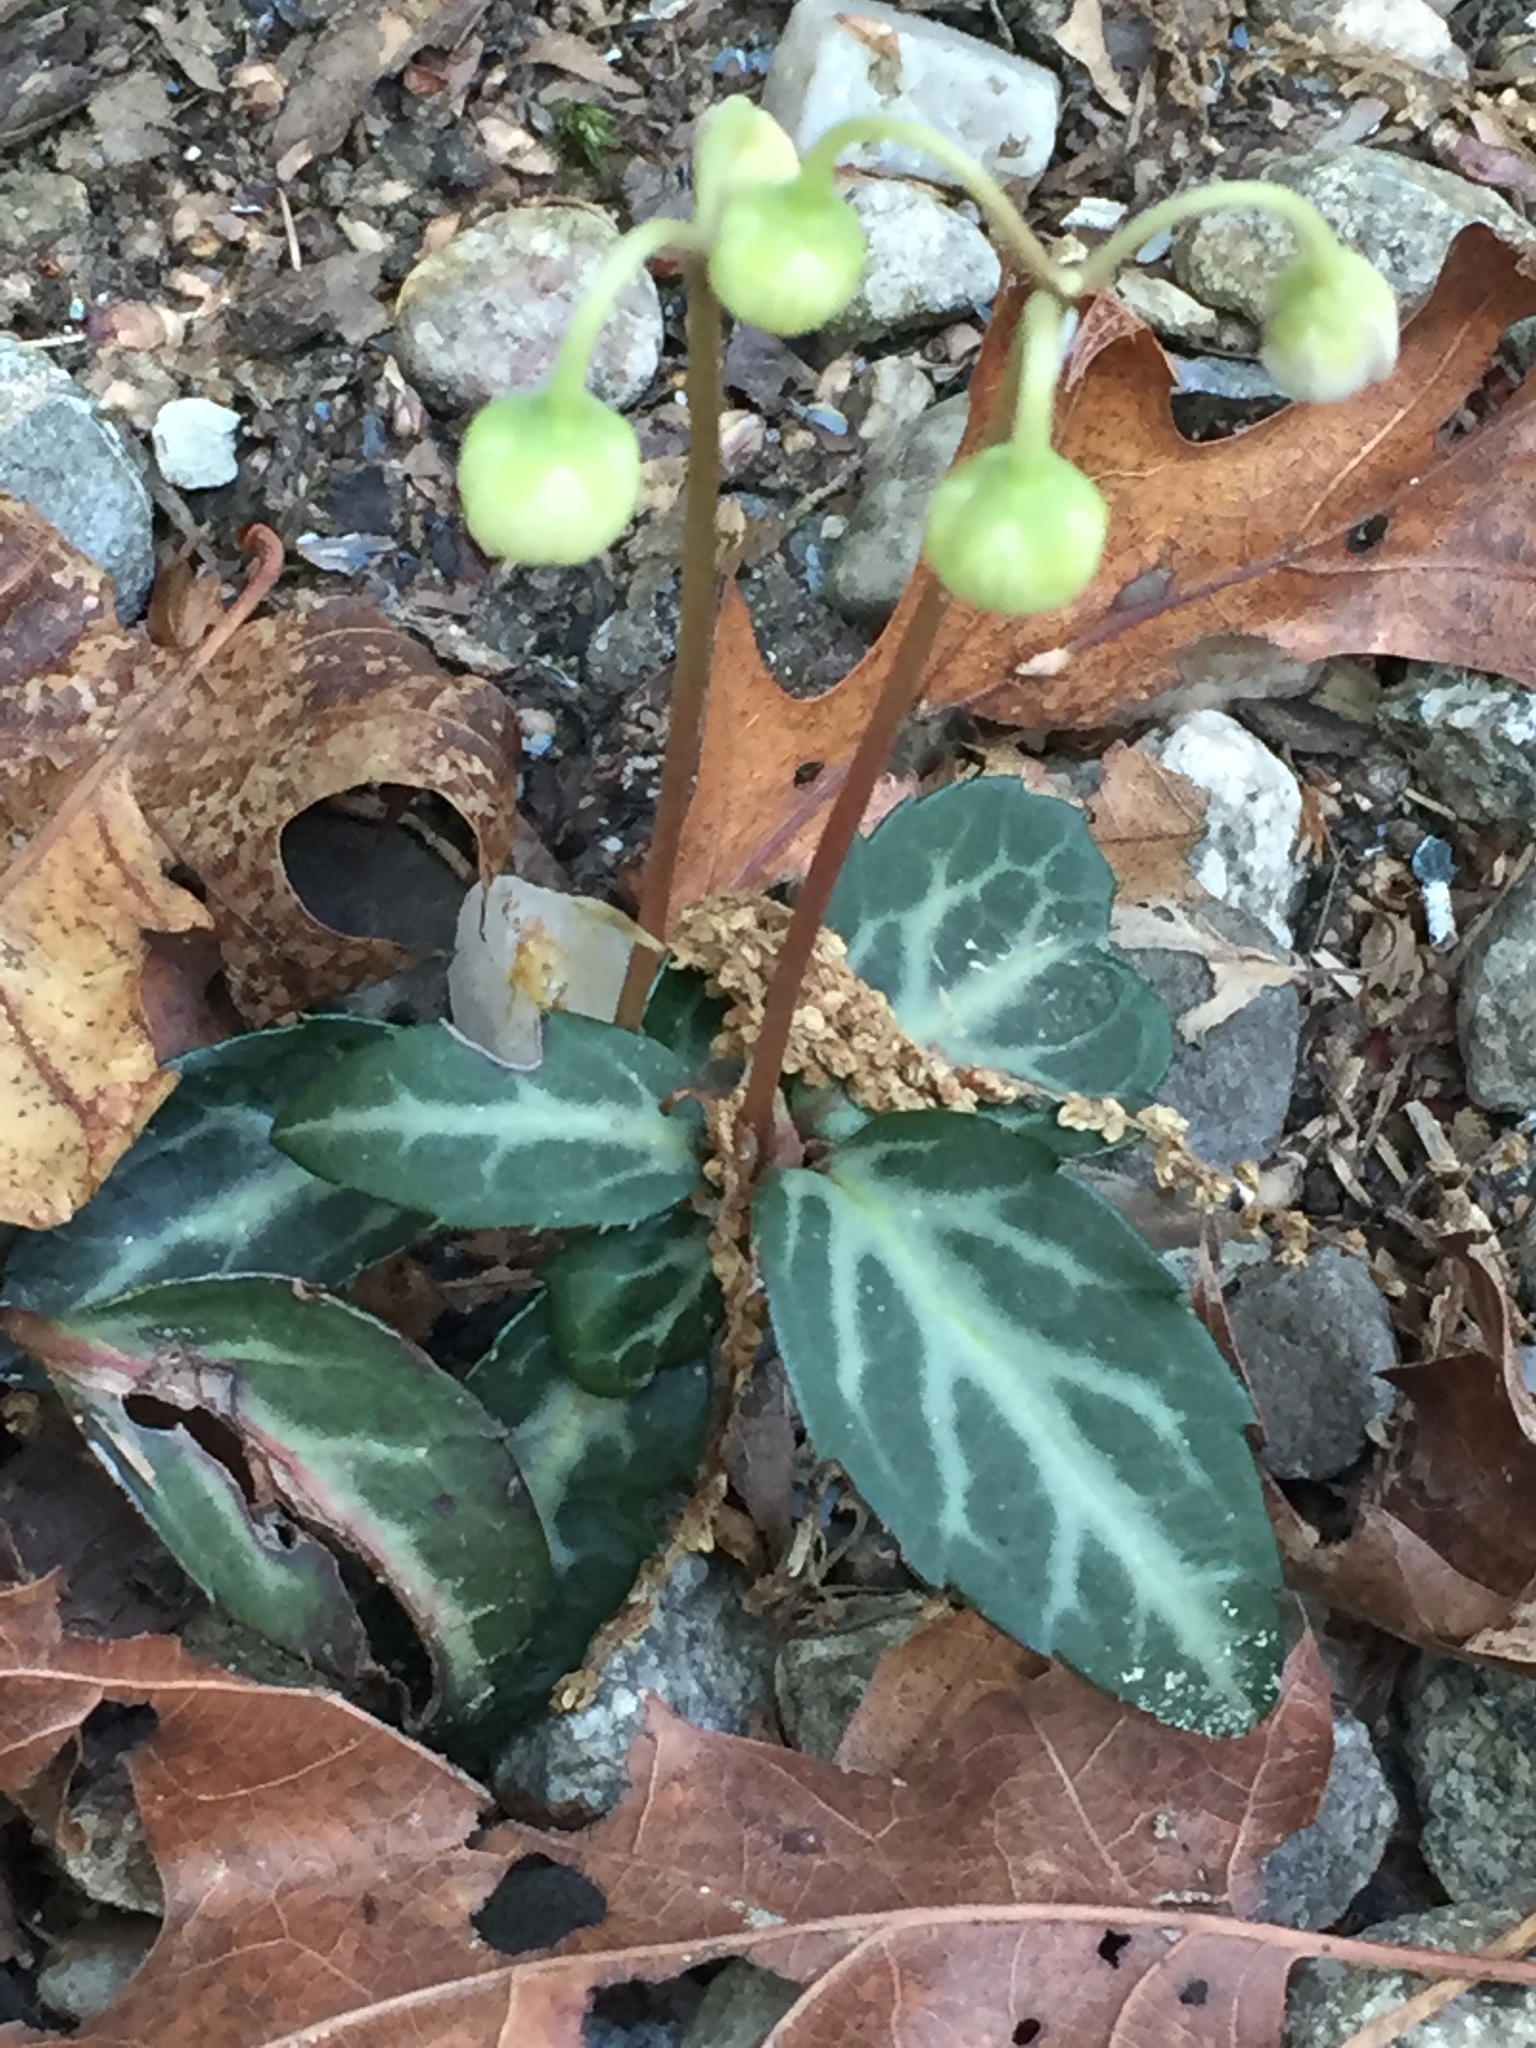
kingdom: Plantae
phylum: Tracheophyta
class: Magnoliopsida
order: Ericales
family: Ericaceae
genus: Chimaphila
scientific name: Chimaphila maculata
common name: Spotted pipsissewa
